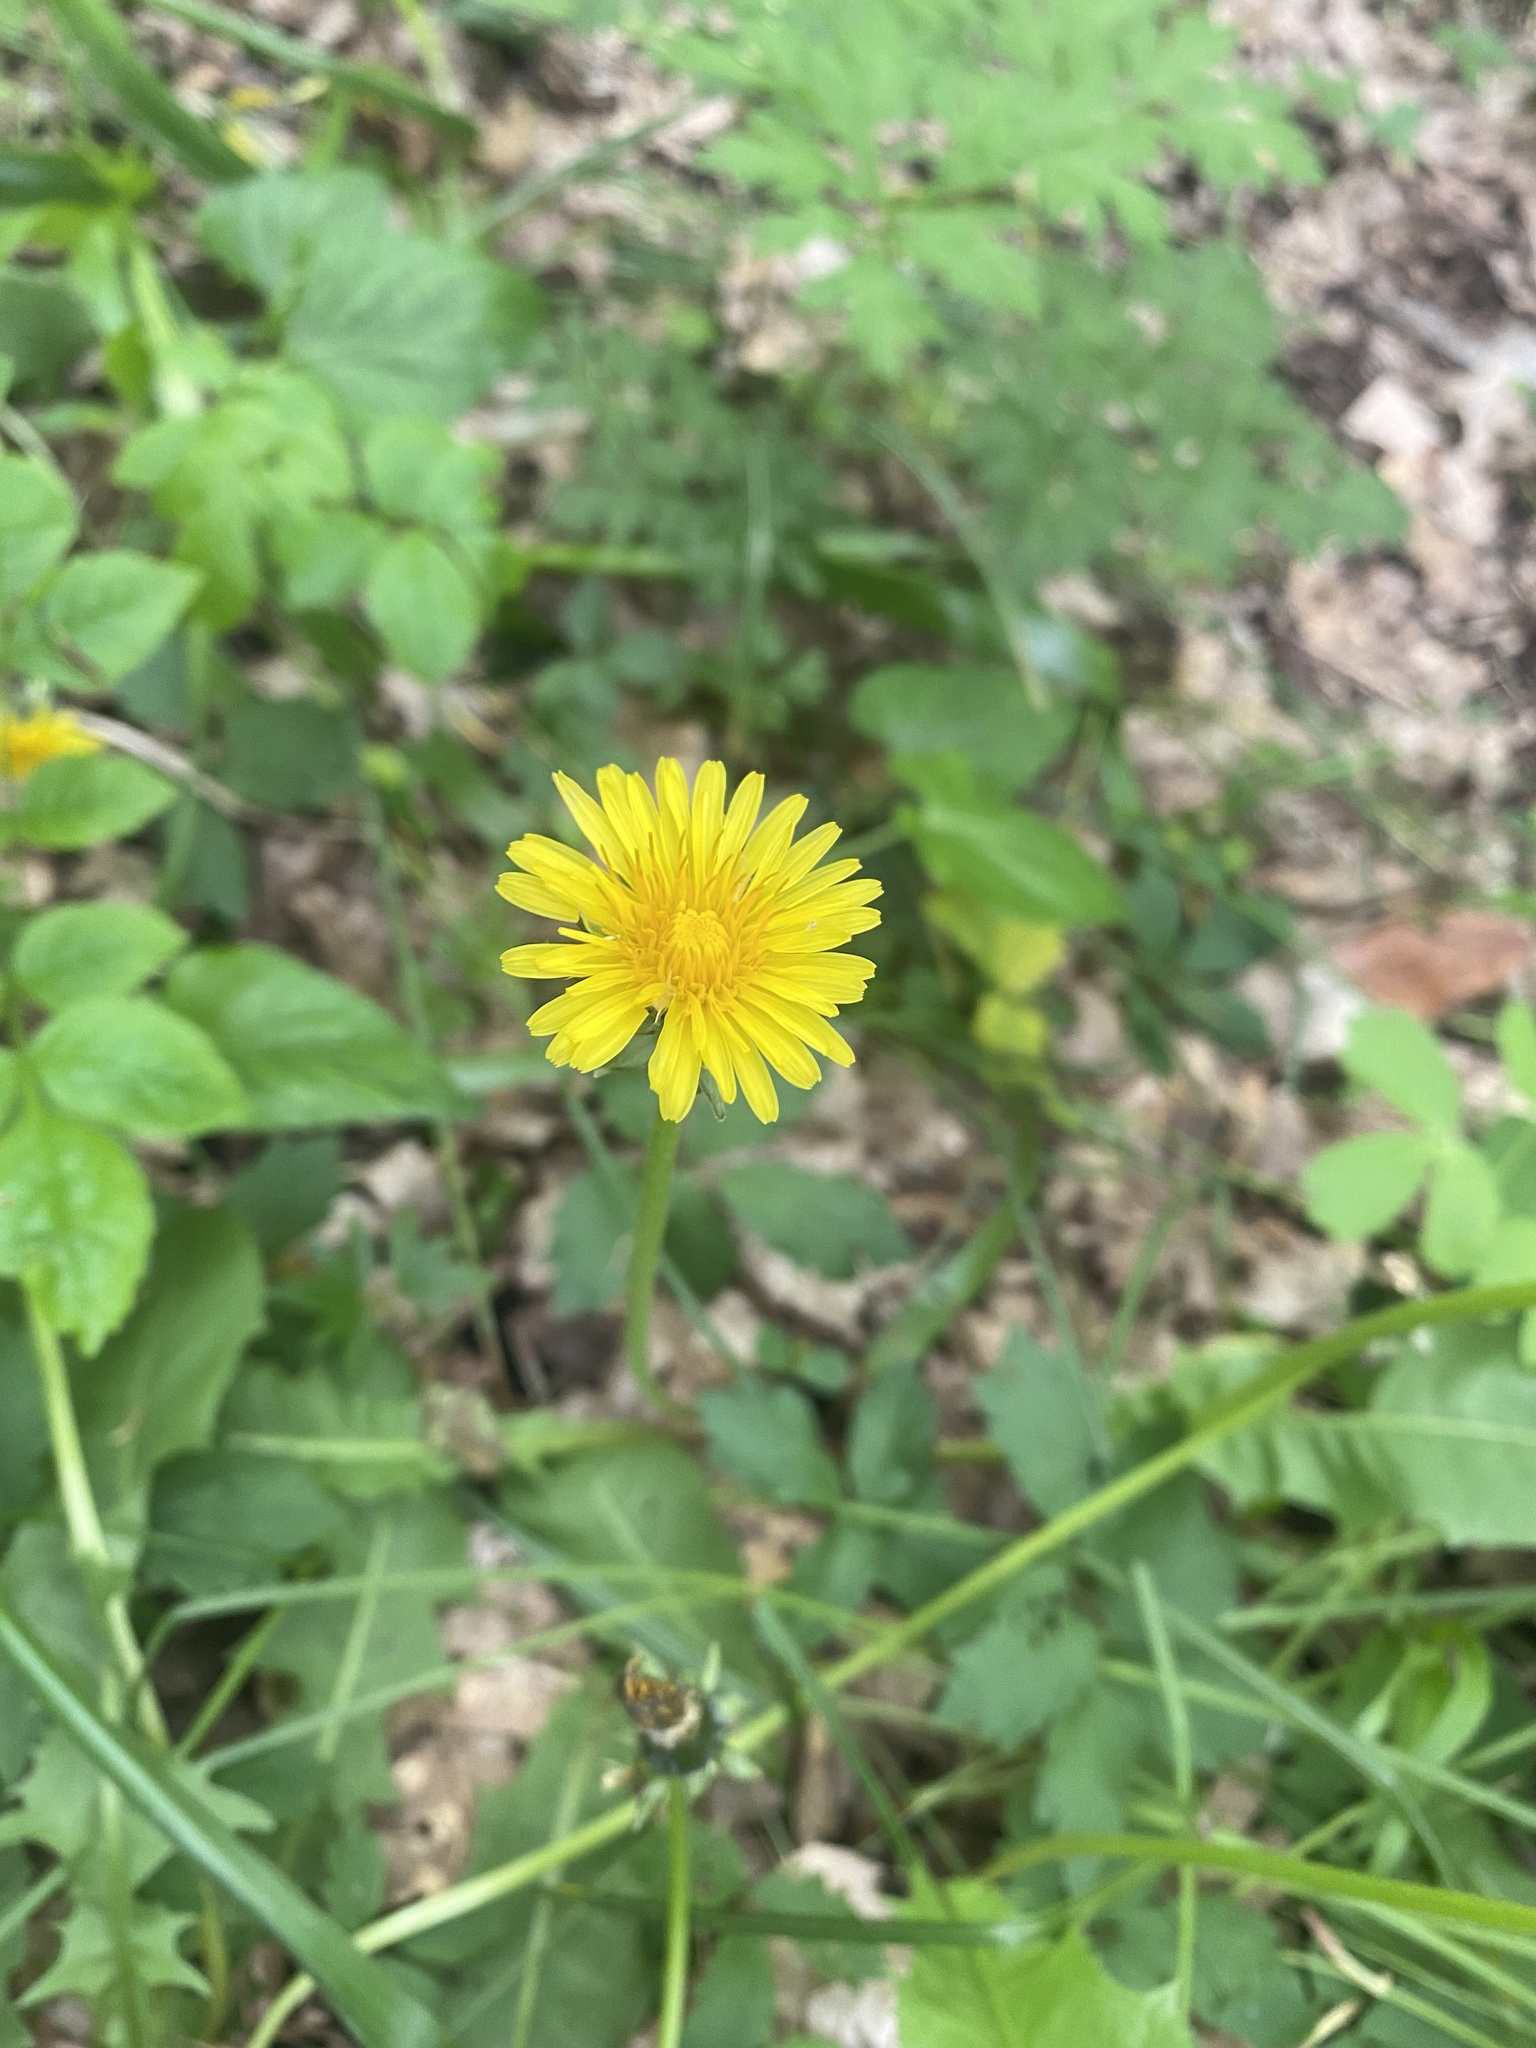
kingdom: Plantae
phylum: Tracheophyta
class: Magnoliopsida
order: Asterales
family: Asteraceae
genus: Taraxacum
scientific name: Taraxacum officinale
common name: Common dandelion
